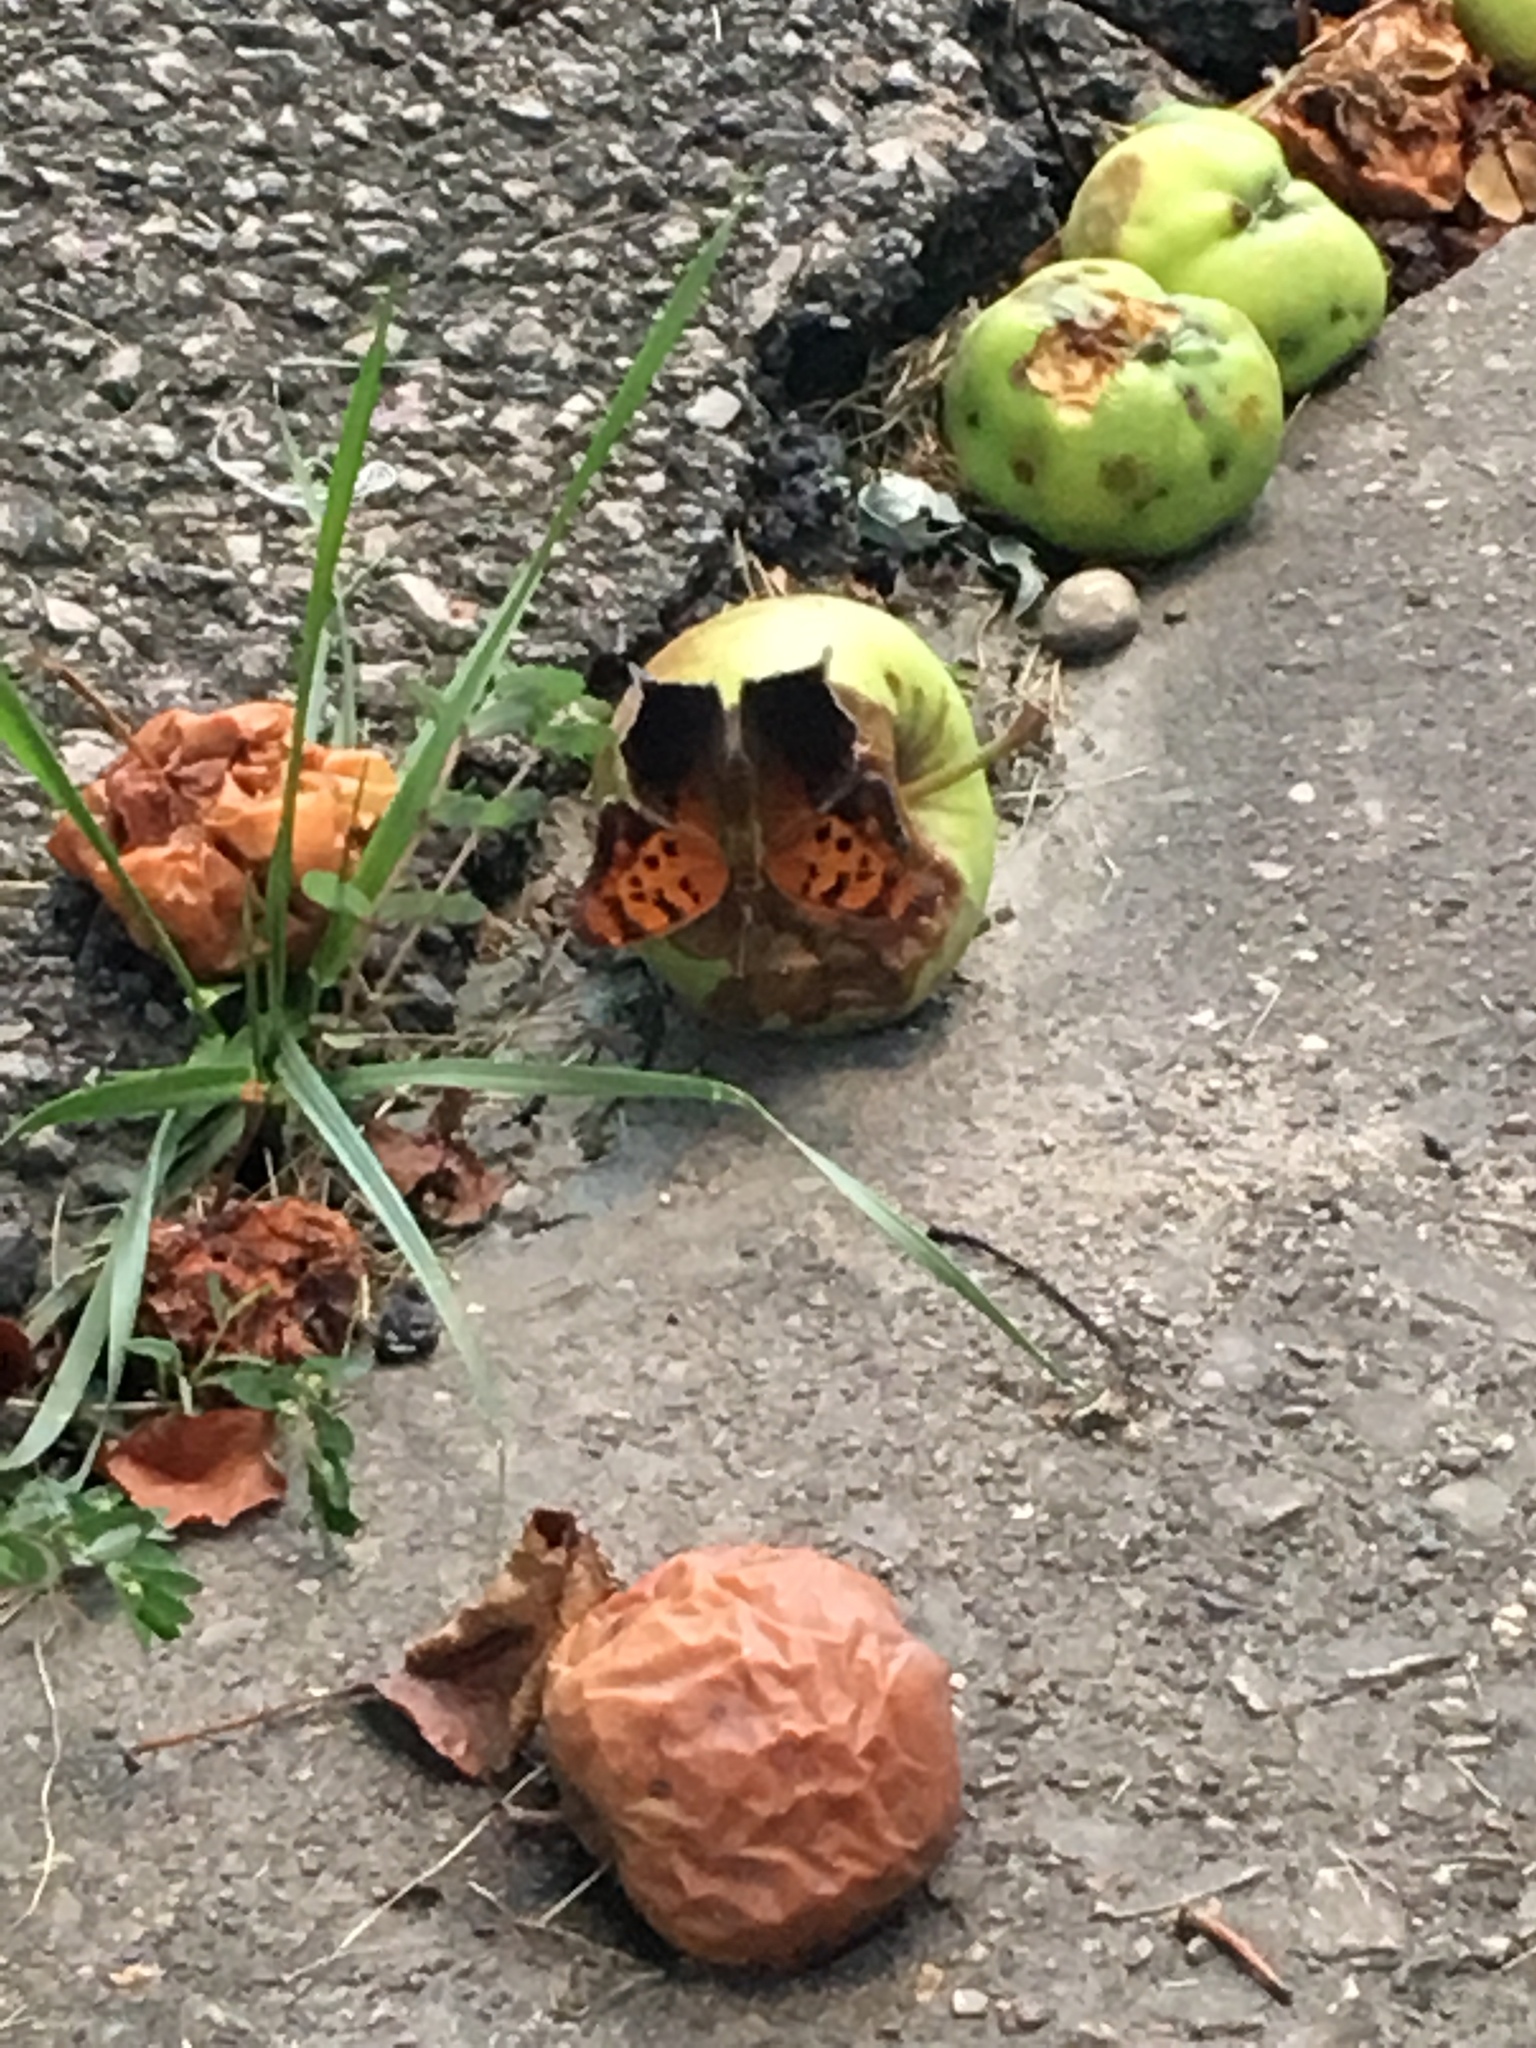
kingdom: Animalia
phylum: Arthropoda
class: Insecta
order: Lepidoptera
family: Nymphalidae
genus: Polygonia
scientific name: Polygonia interrogationis
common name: Question mark
